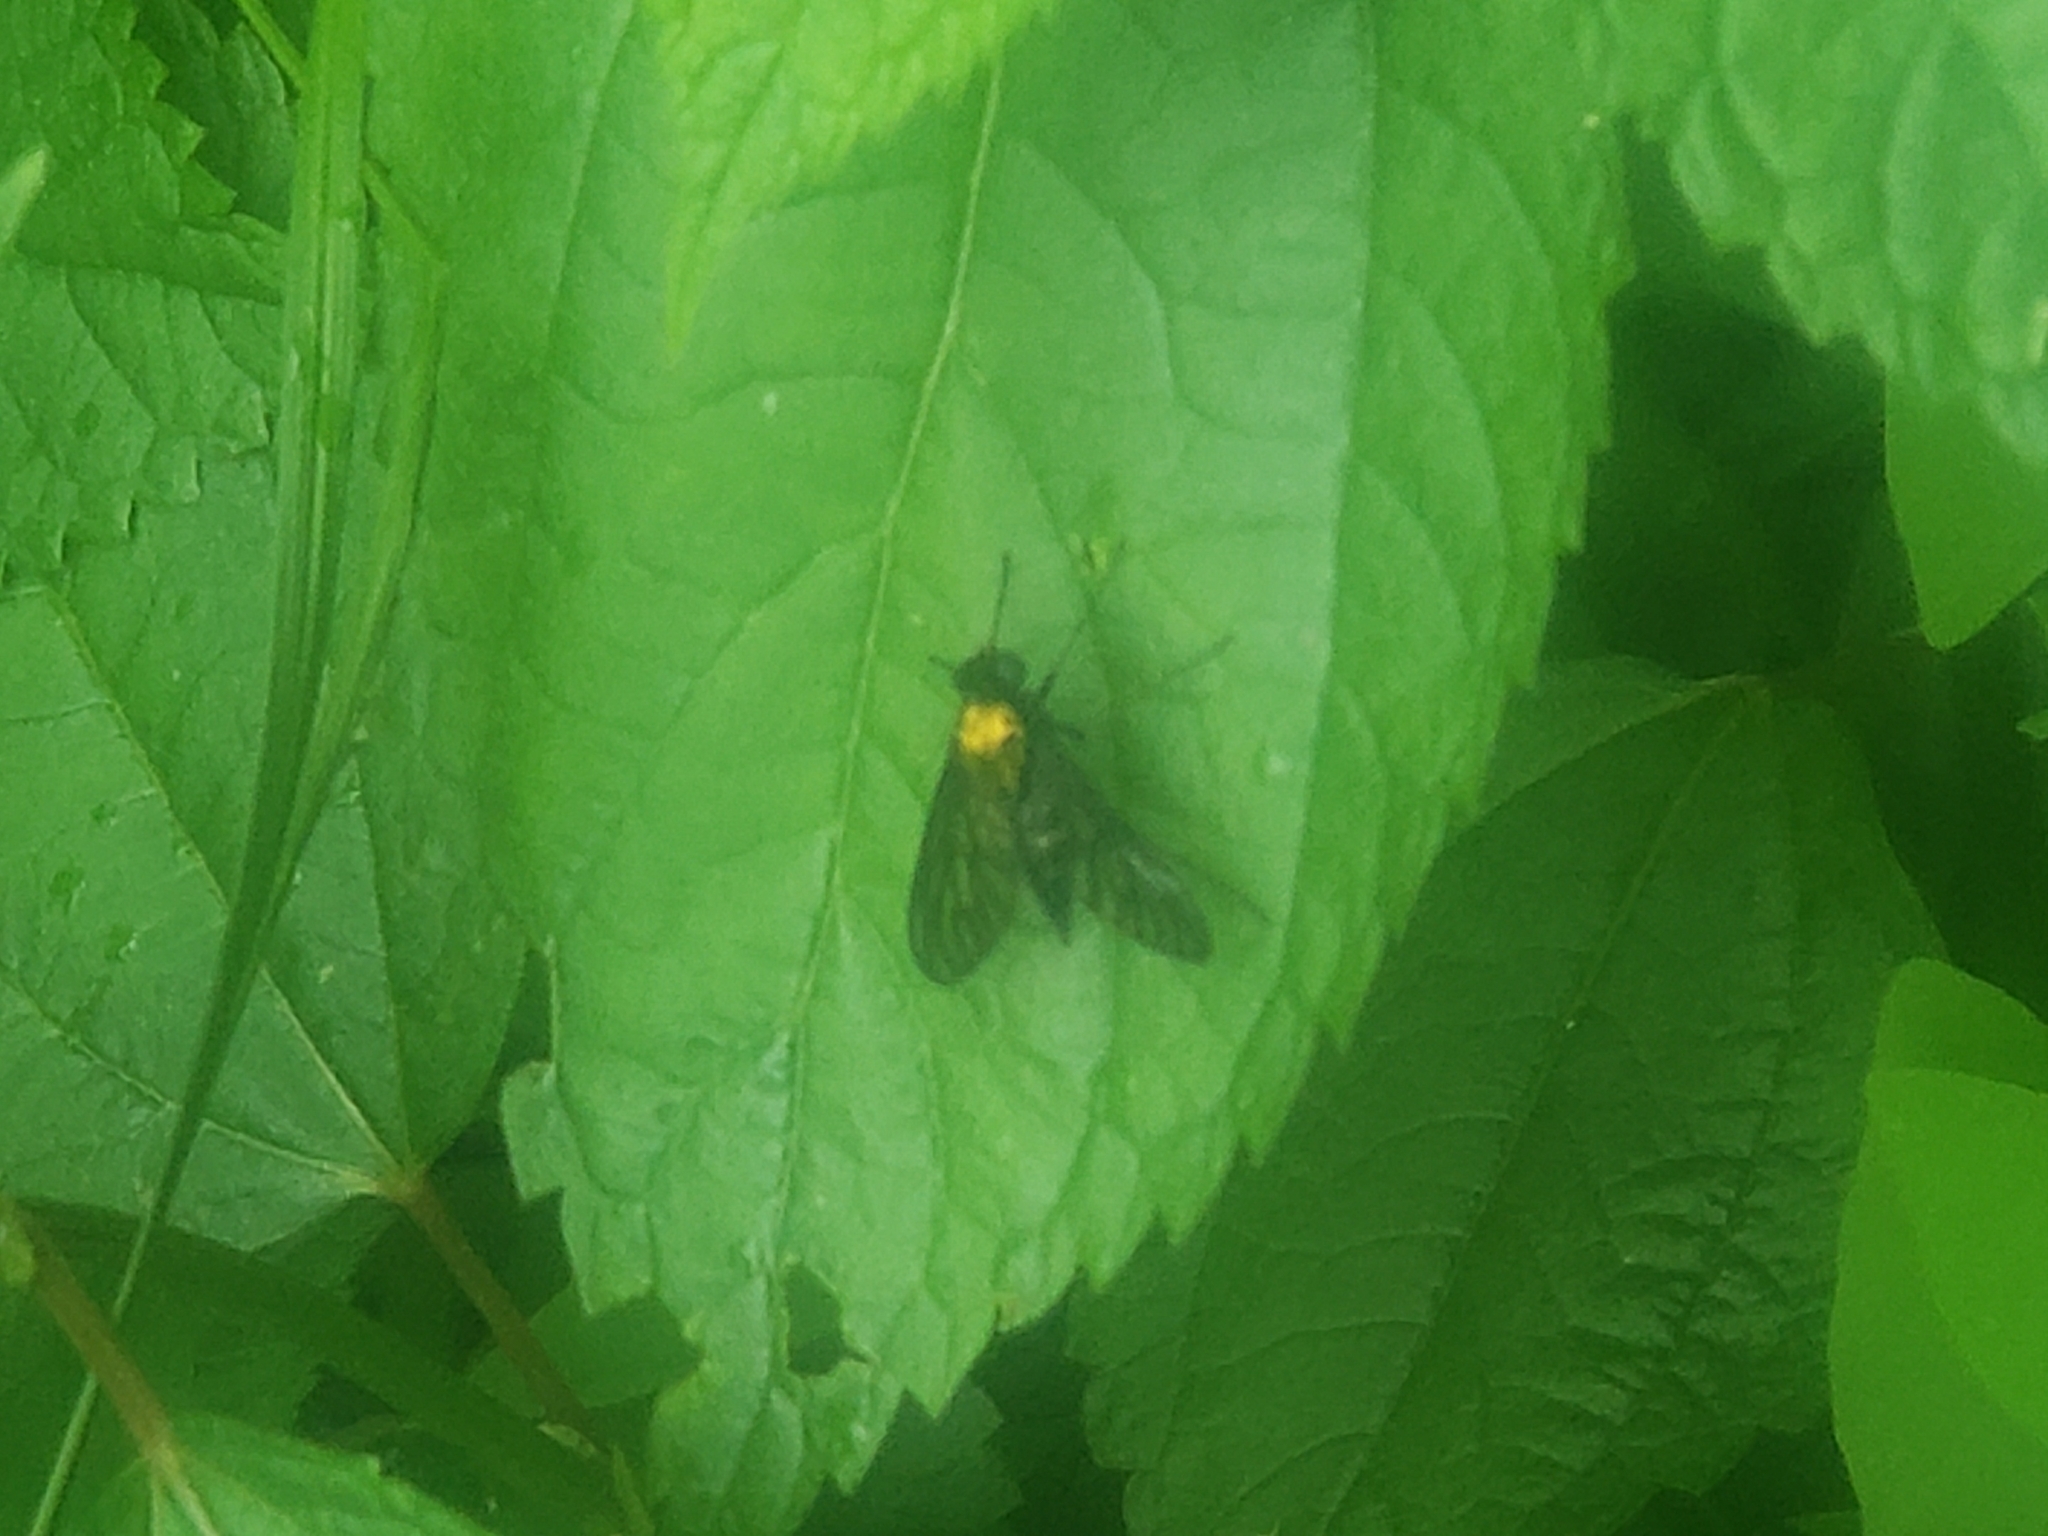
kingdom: Animalia
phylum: Arthropoda
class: Insecta
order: Diptera
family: Rhagionidae
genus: Chrysopilus
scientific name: Chrysopilus thoracicus
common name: Golden-backed snipe fly
